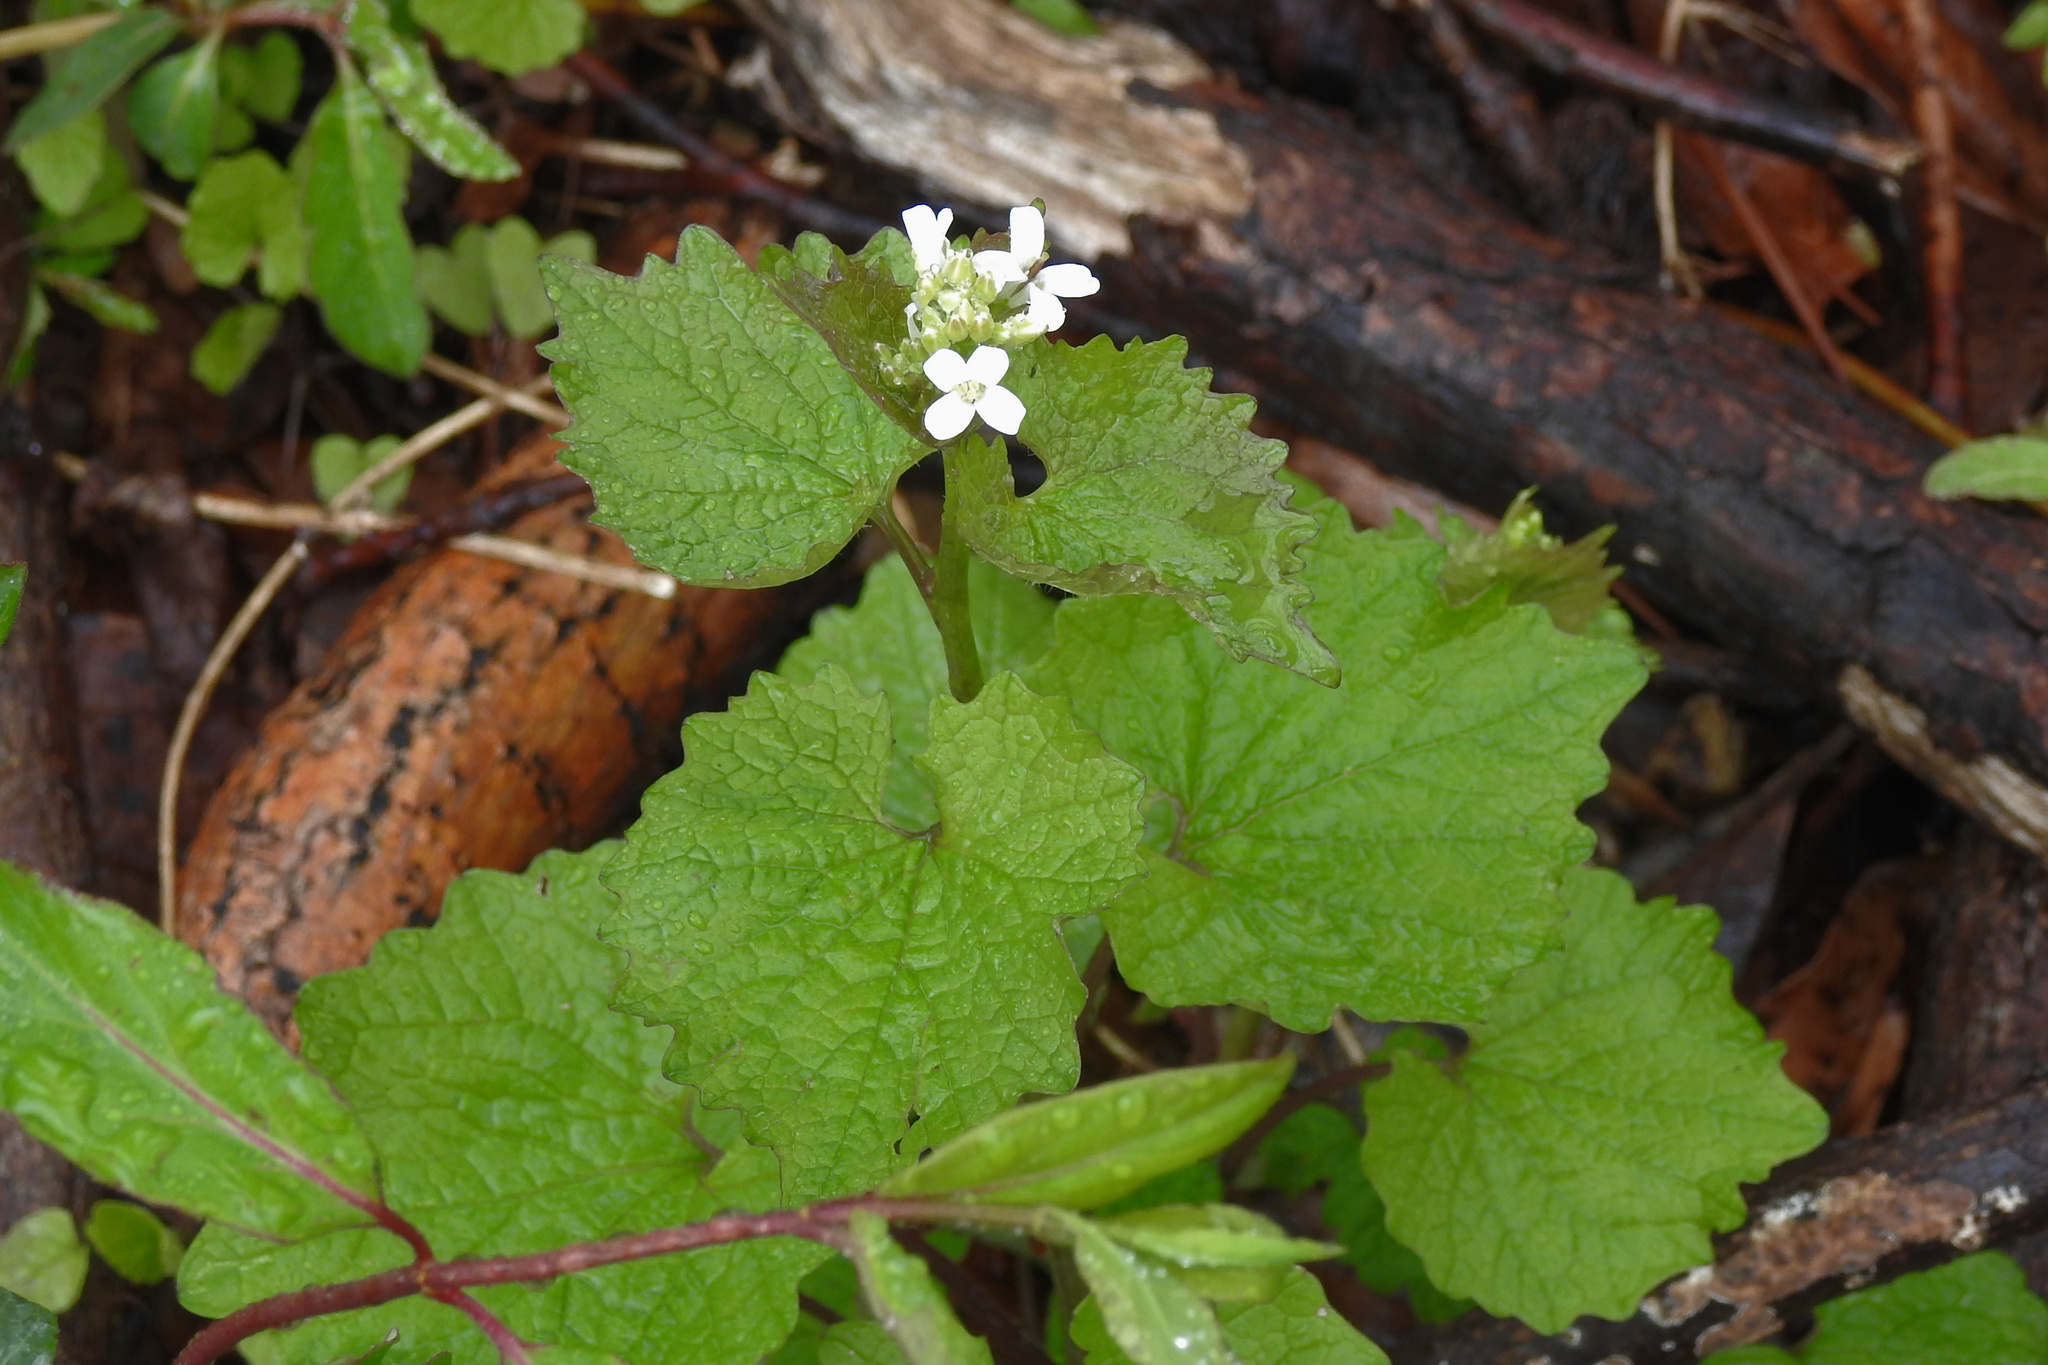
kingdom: Plantae
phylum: Tracheophyta
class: Magnoliopsida
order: Brassicales
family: Brassicaceae
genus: Alliaria
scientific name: Alliaria petiolata
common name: Garlic mustard
